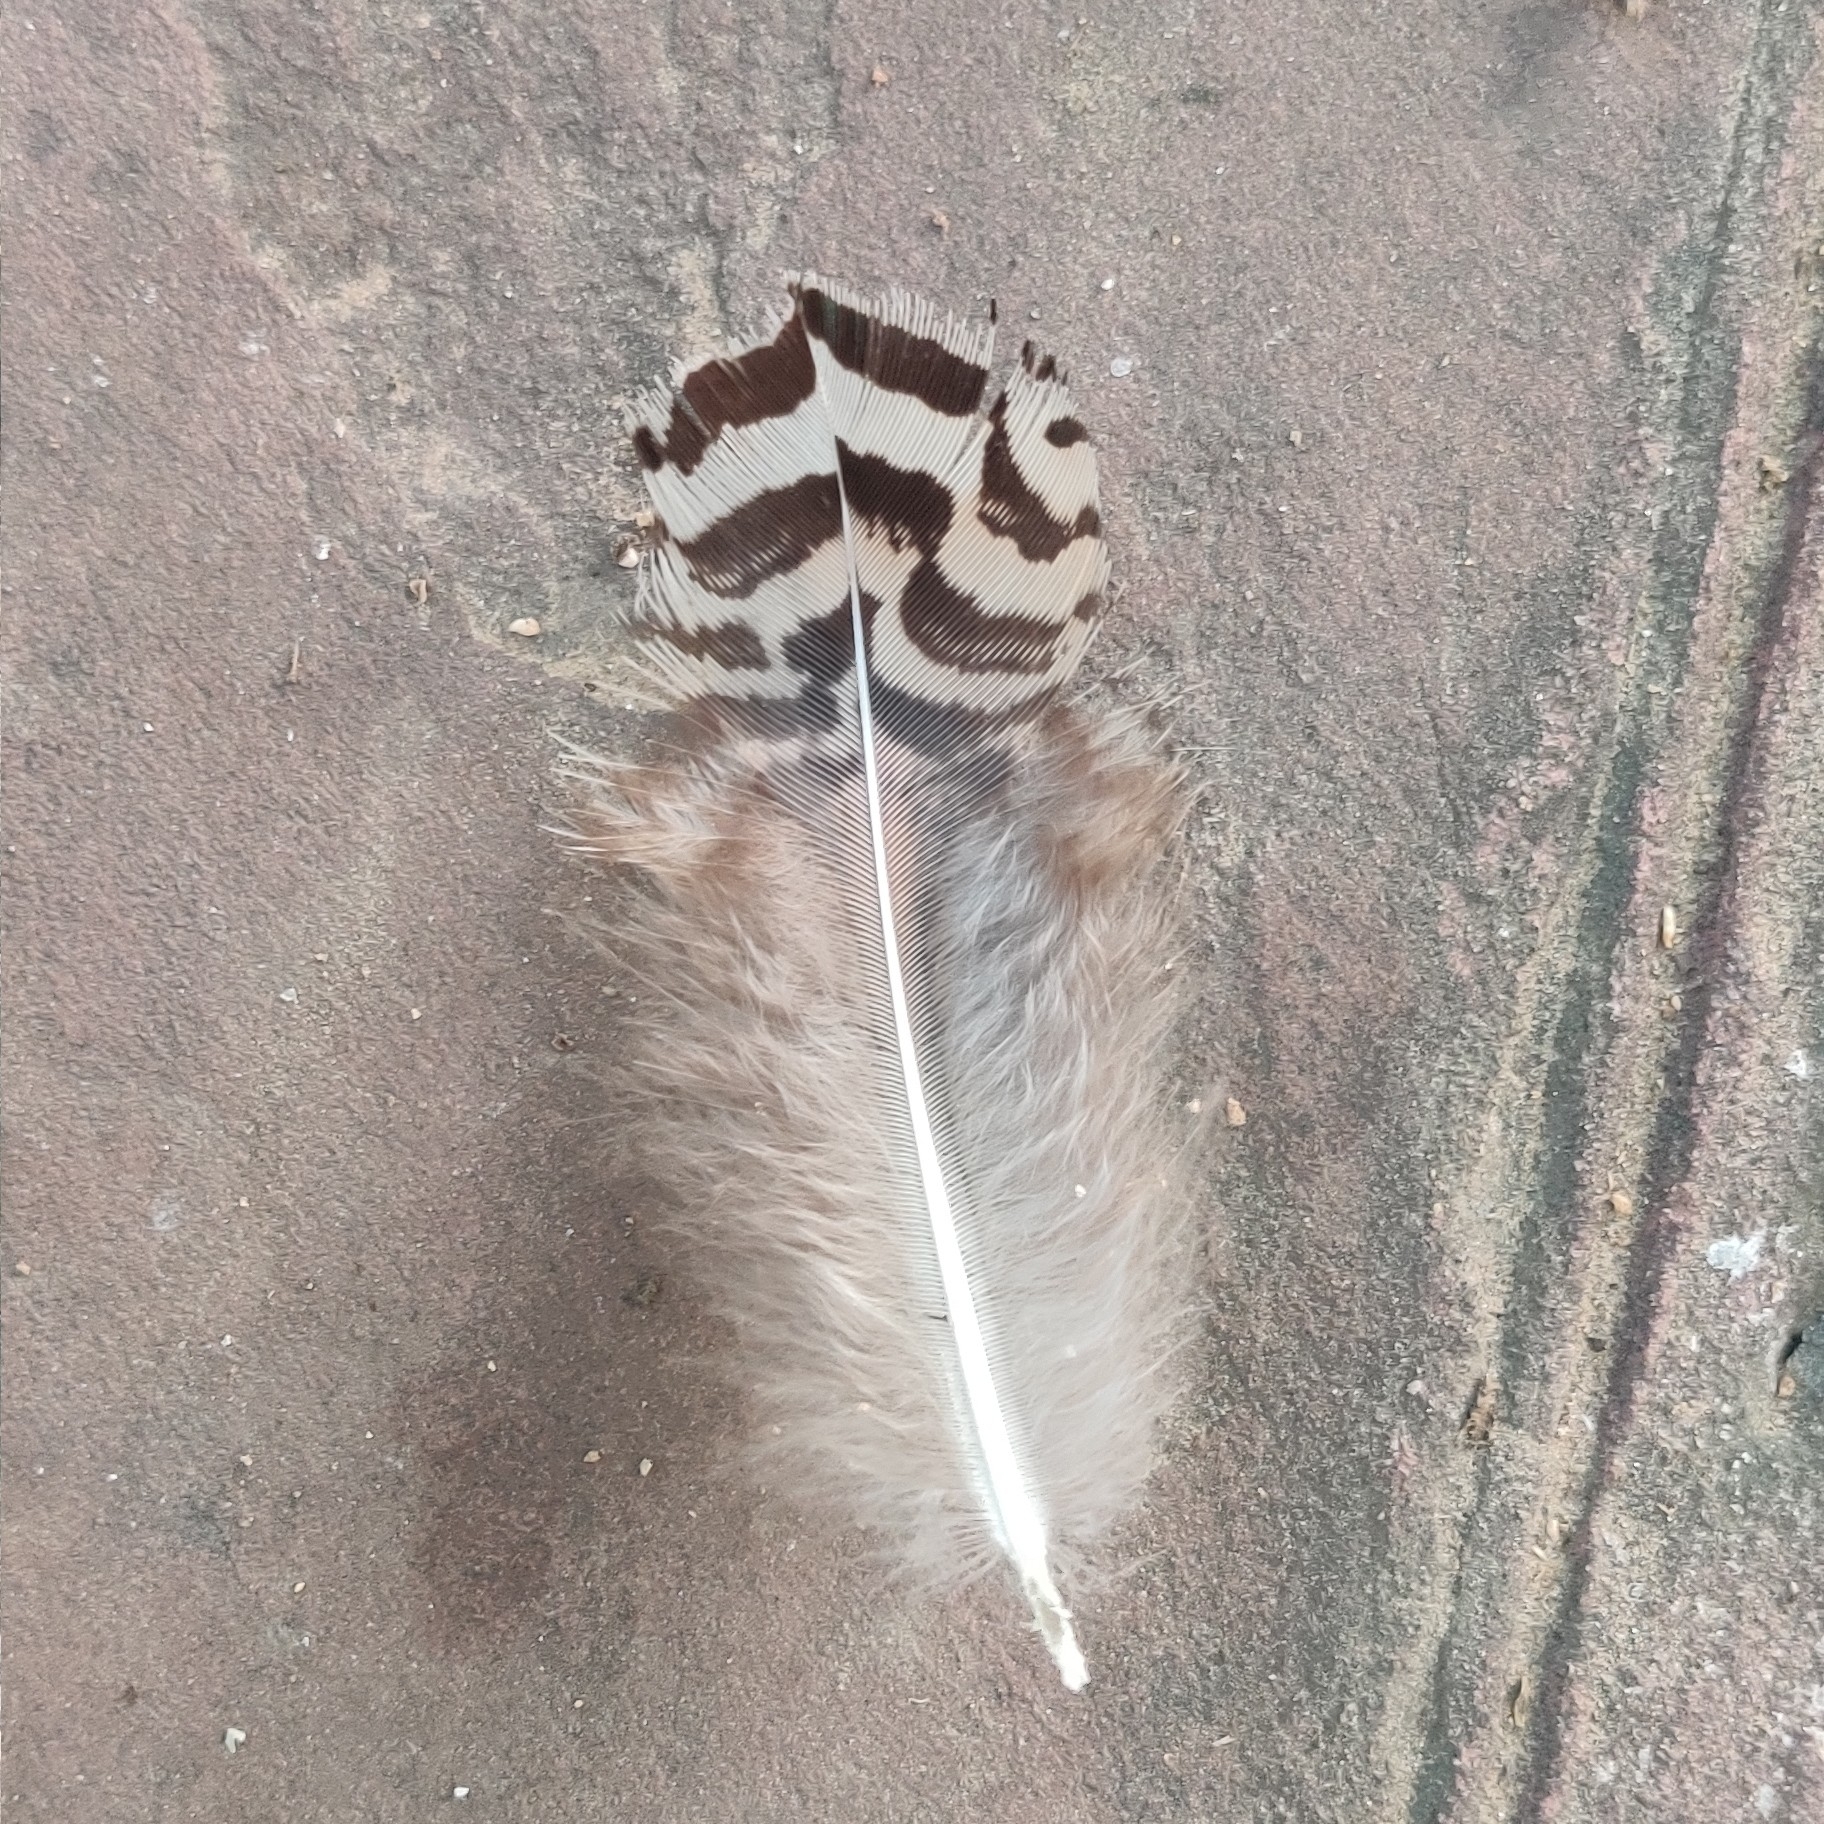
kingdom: Animalia
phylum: Chordata
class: Aves
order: Galliformes
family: Phasianidae
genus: Pavo
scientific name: Pavo cristatus
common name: Indian peafowl
